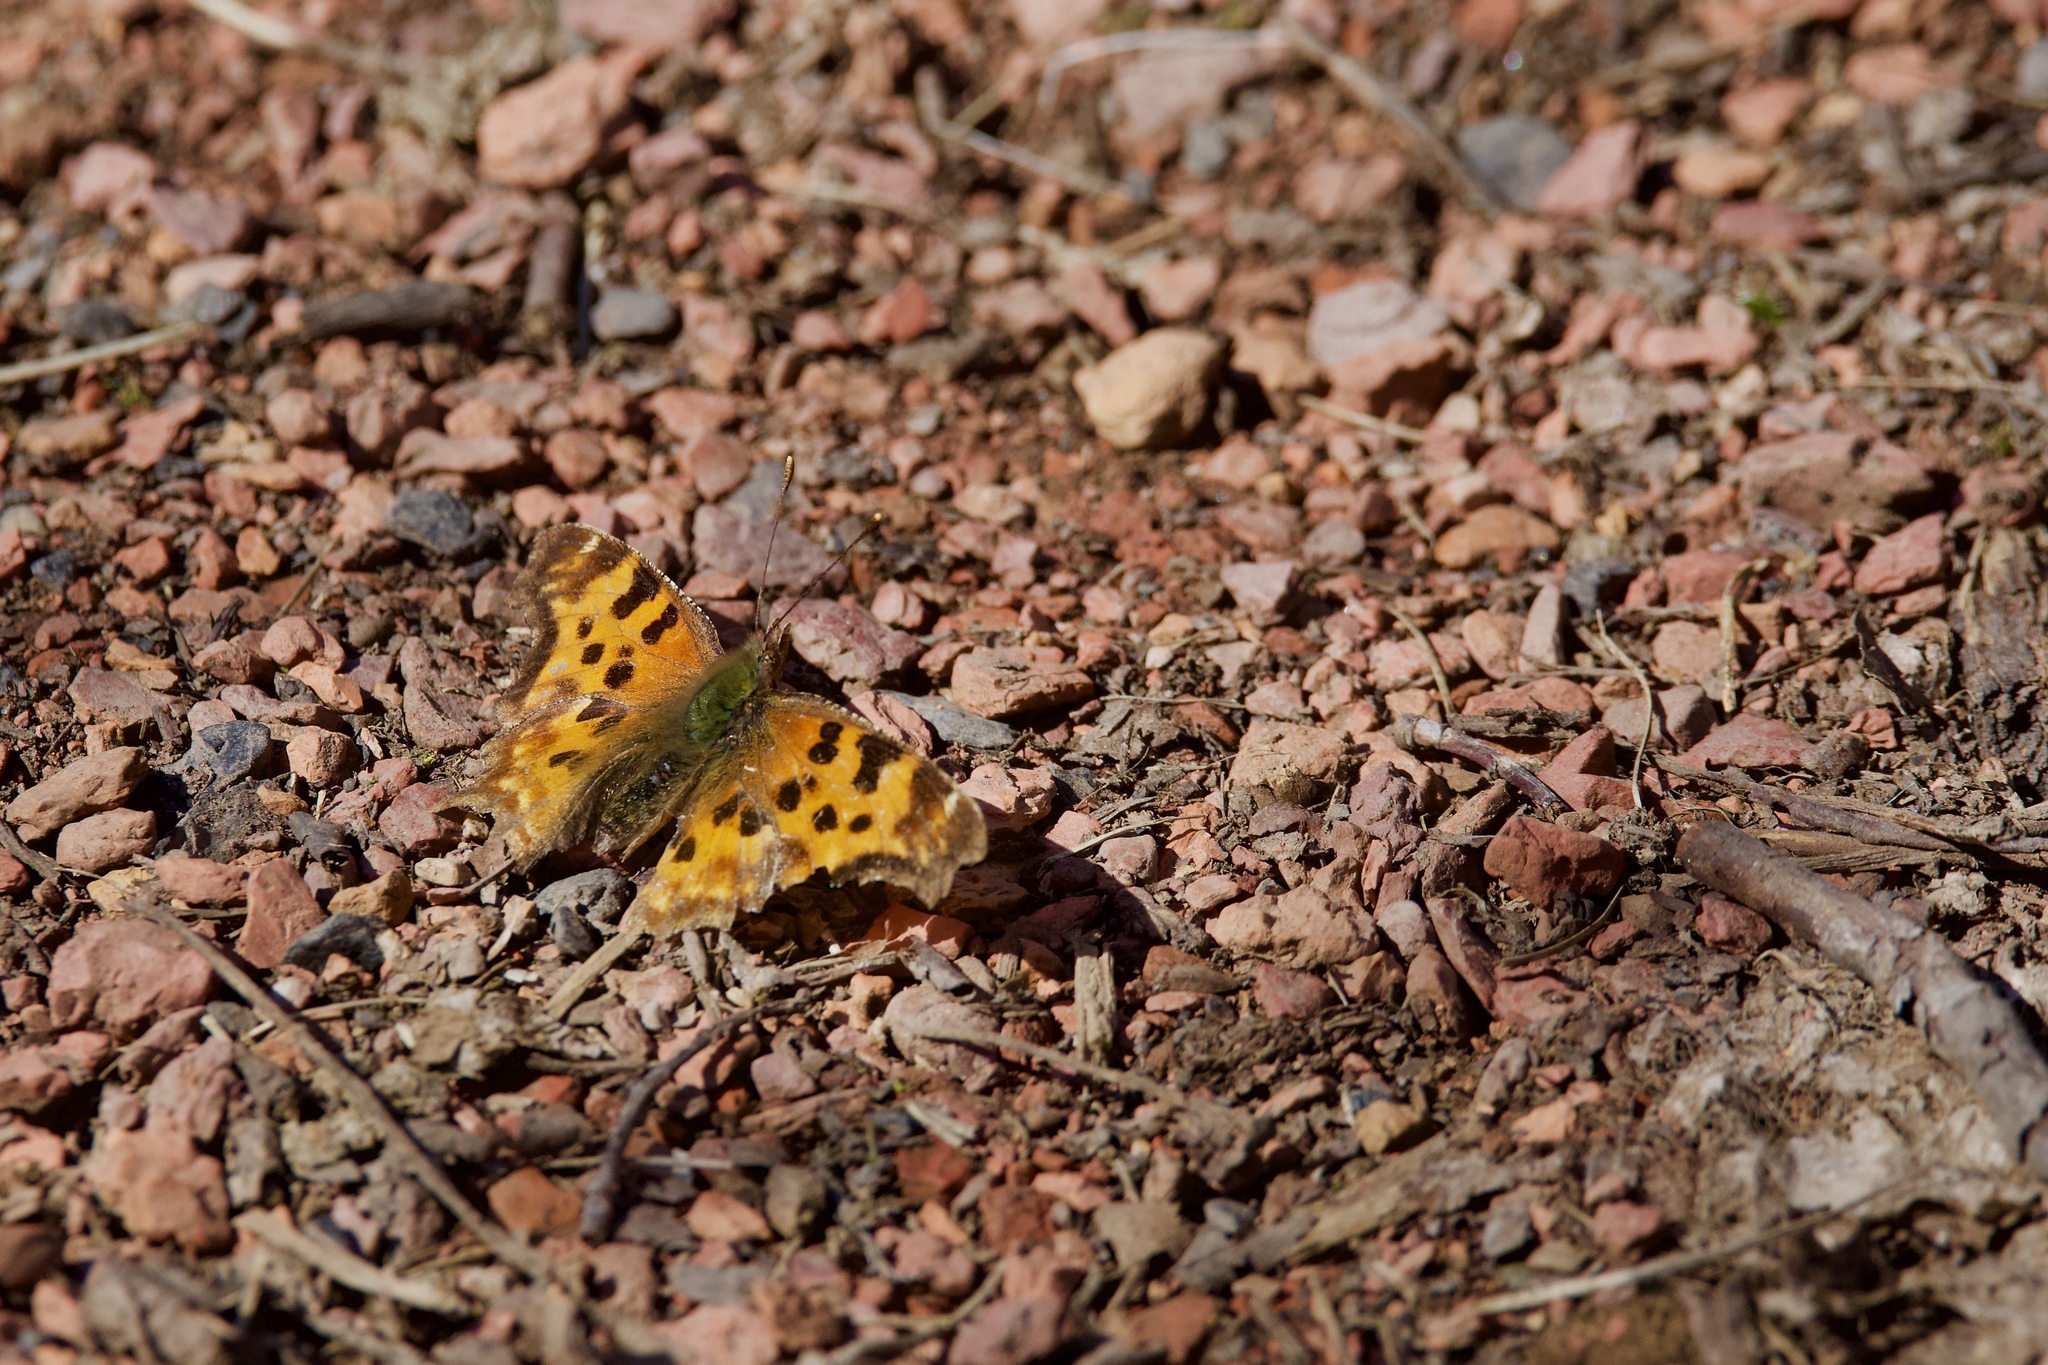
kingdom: Animalia
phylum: Arthropoda
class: Insecta
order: Lepidoptera
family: Nymphalidae
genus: Polygonia
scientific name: Polygonia satyrus
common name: Satyr angle wing
